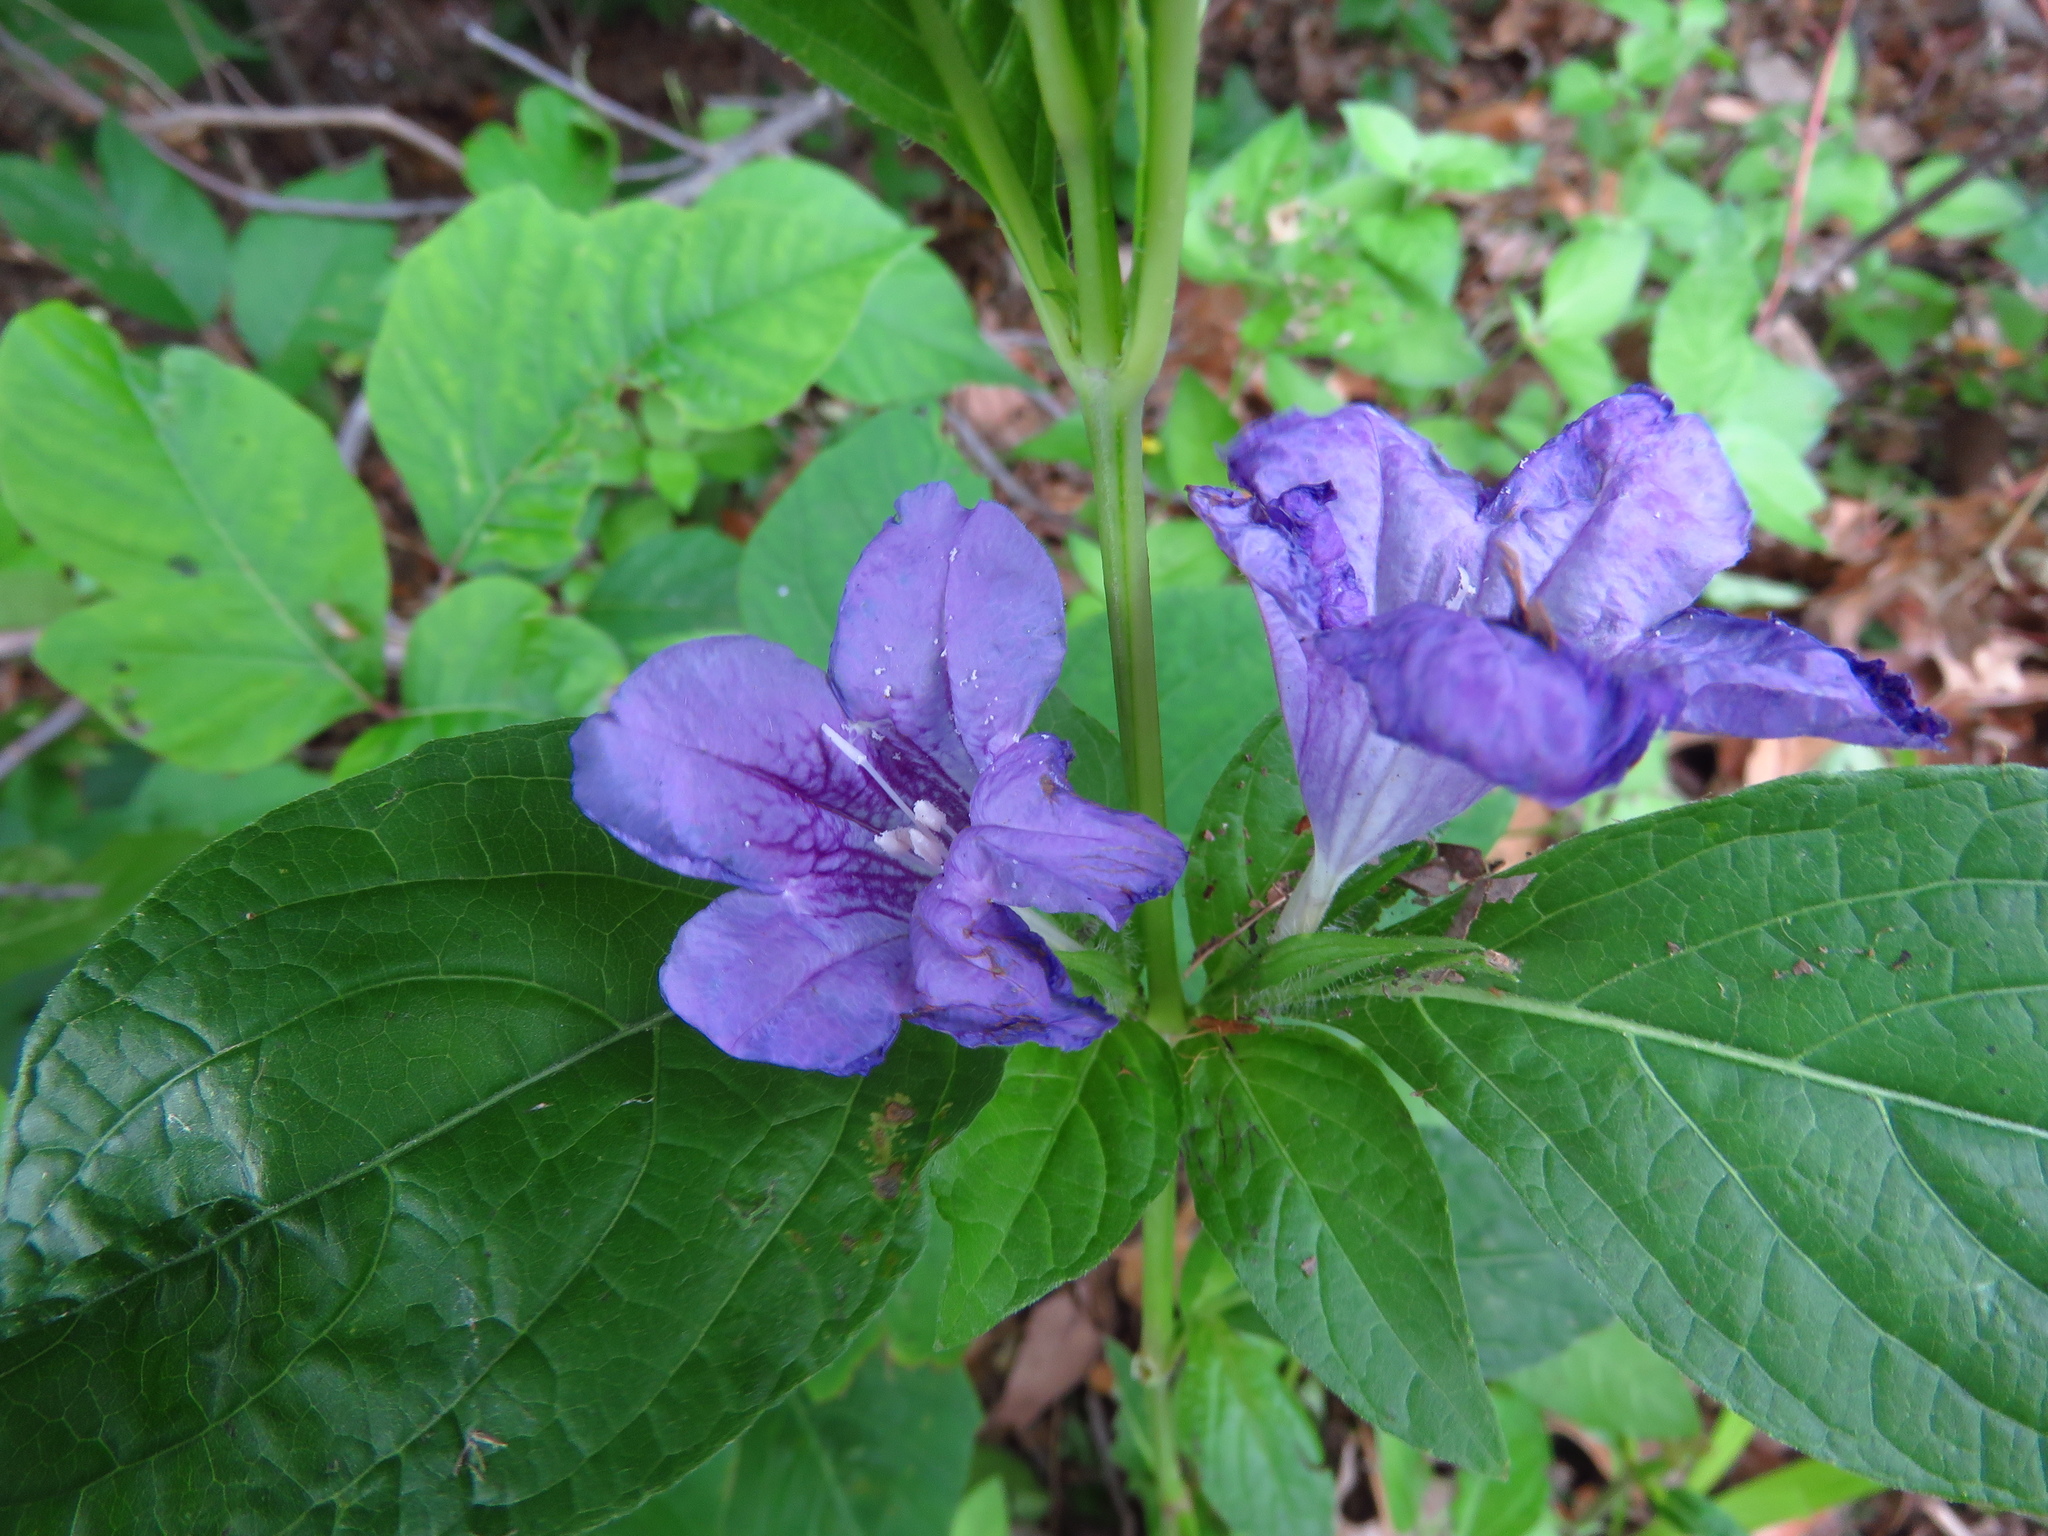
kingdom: Plantae
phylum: Tracheophyta
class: Magnoliopsida
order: Lamiales
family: Acanthaceae
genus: Ruellia
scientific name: Ruellia strepens
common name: Limestone wild petunia
